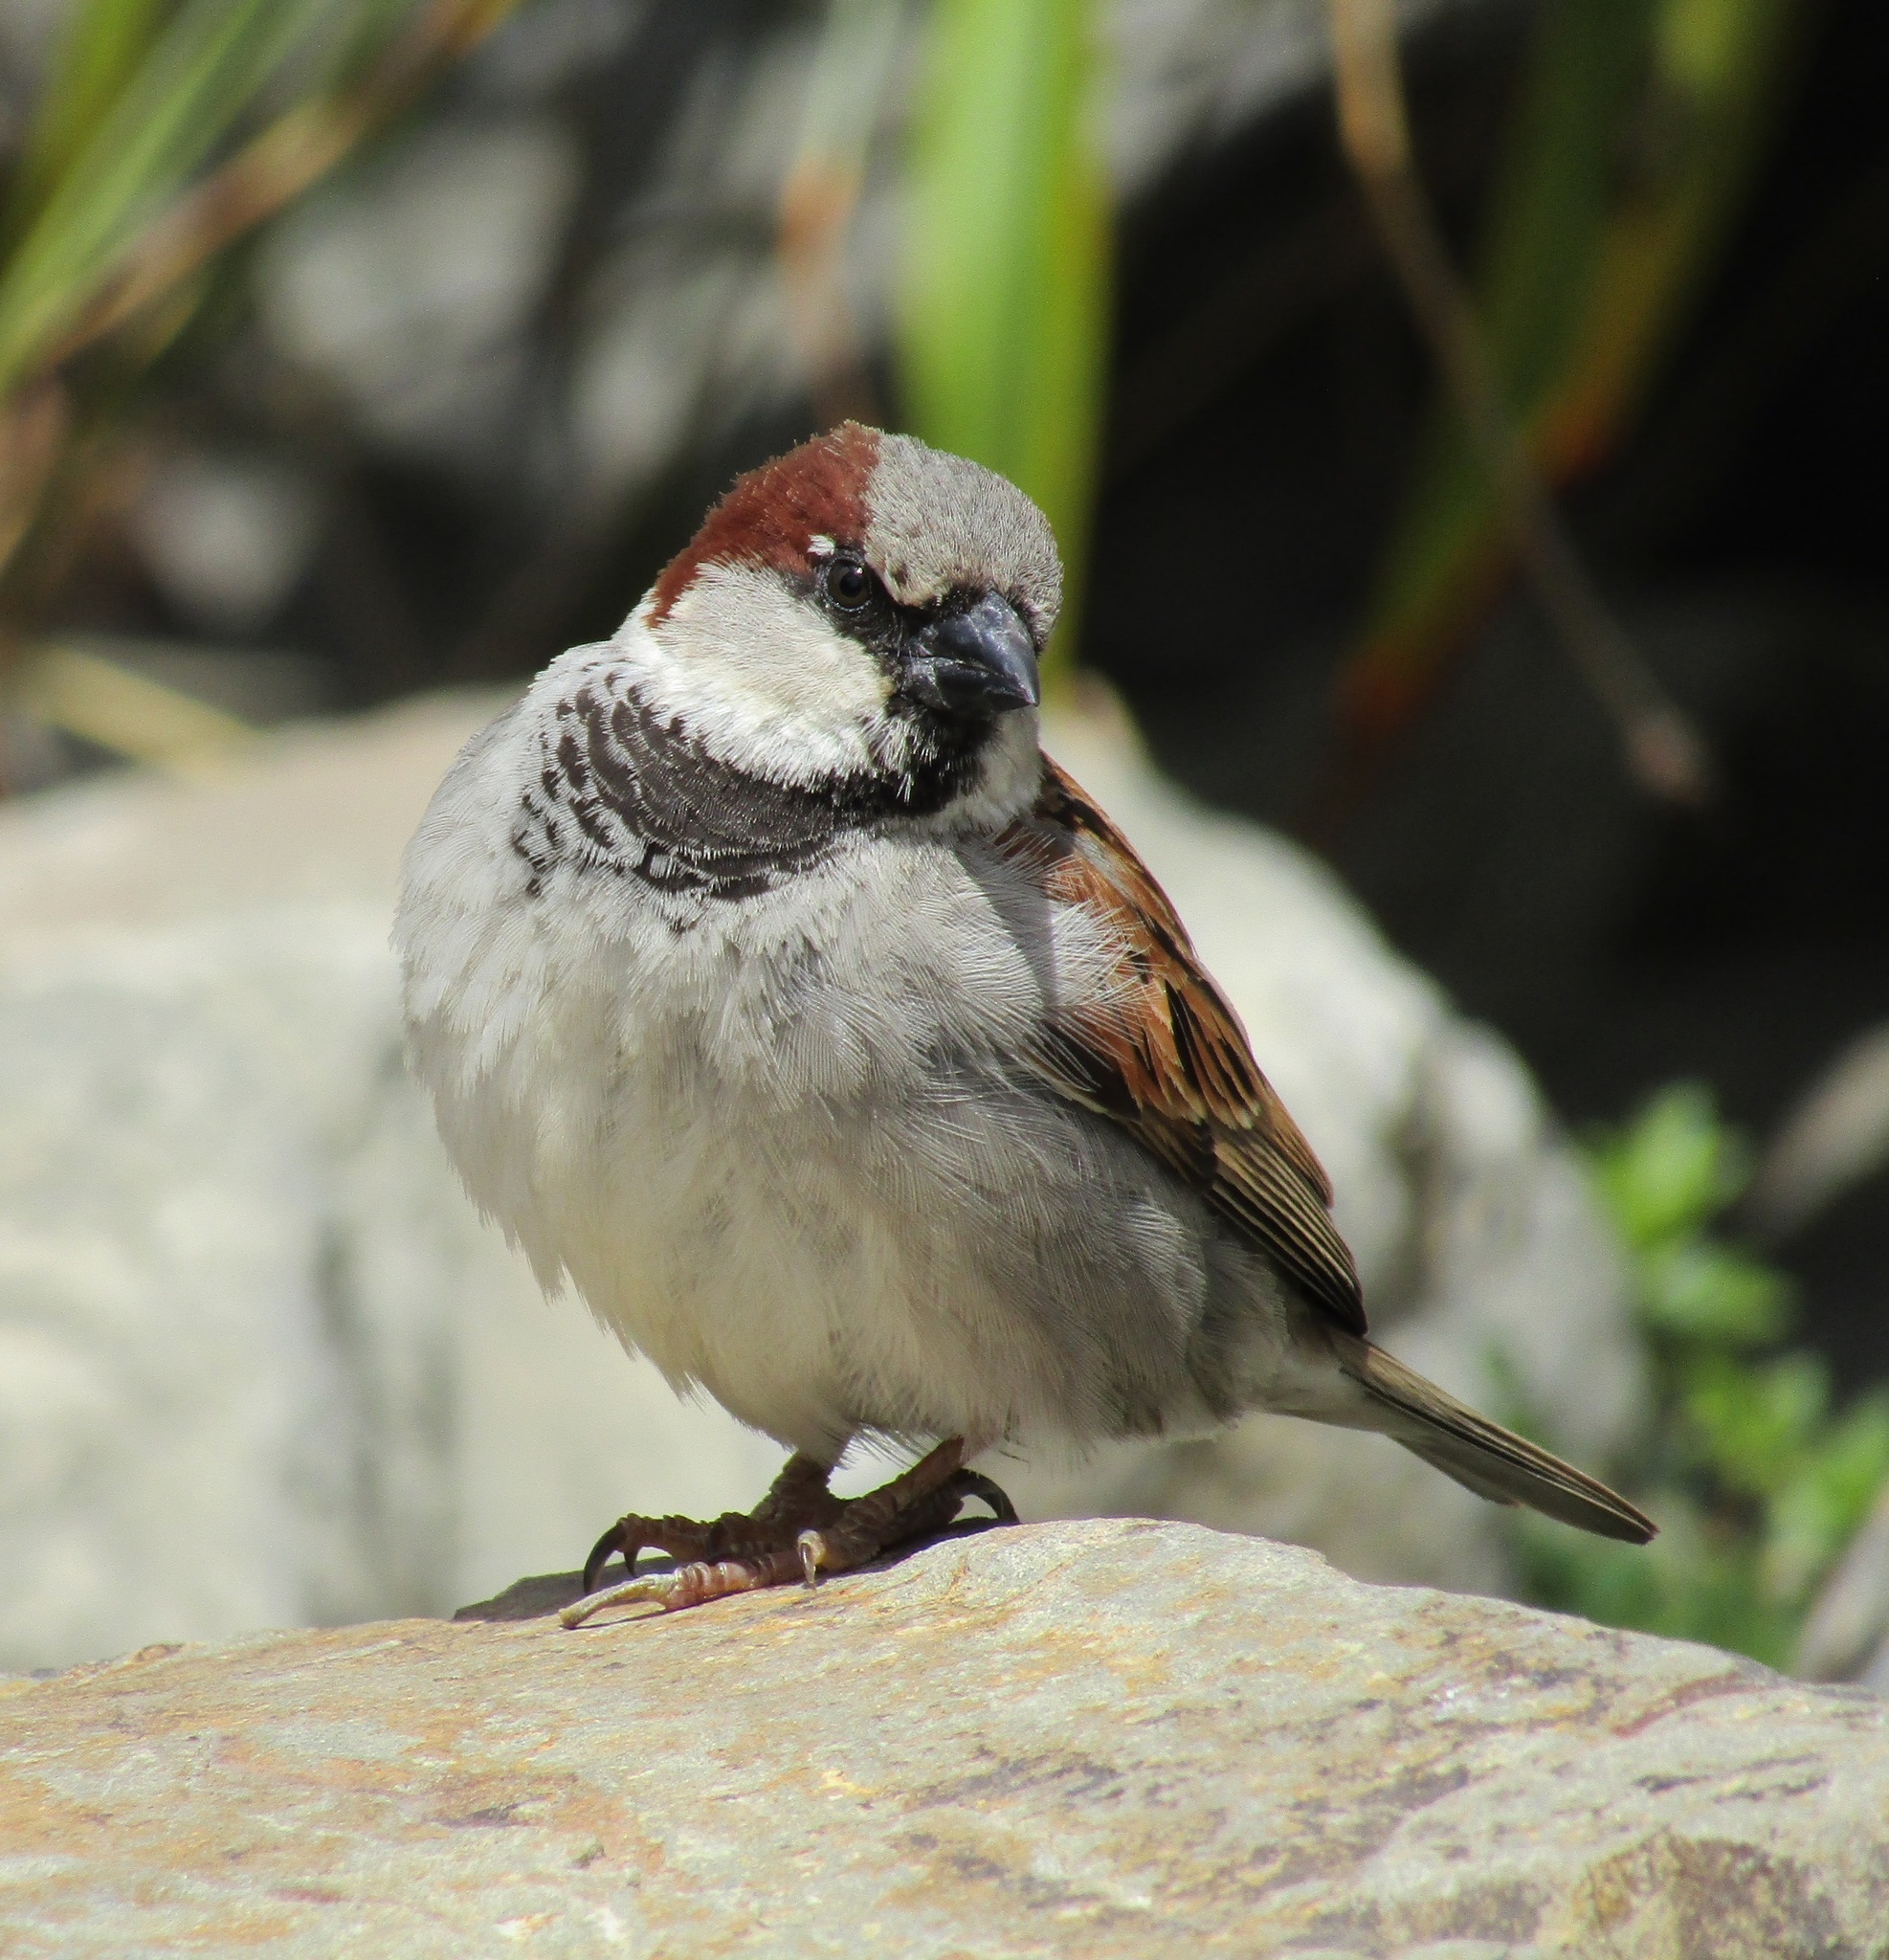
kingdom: Animalia
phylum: Chordata
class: Aves
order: Passeriformes
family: Passeridae
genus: Passer
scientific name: Passer domesticus
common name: House sparrow
